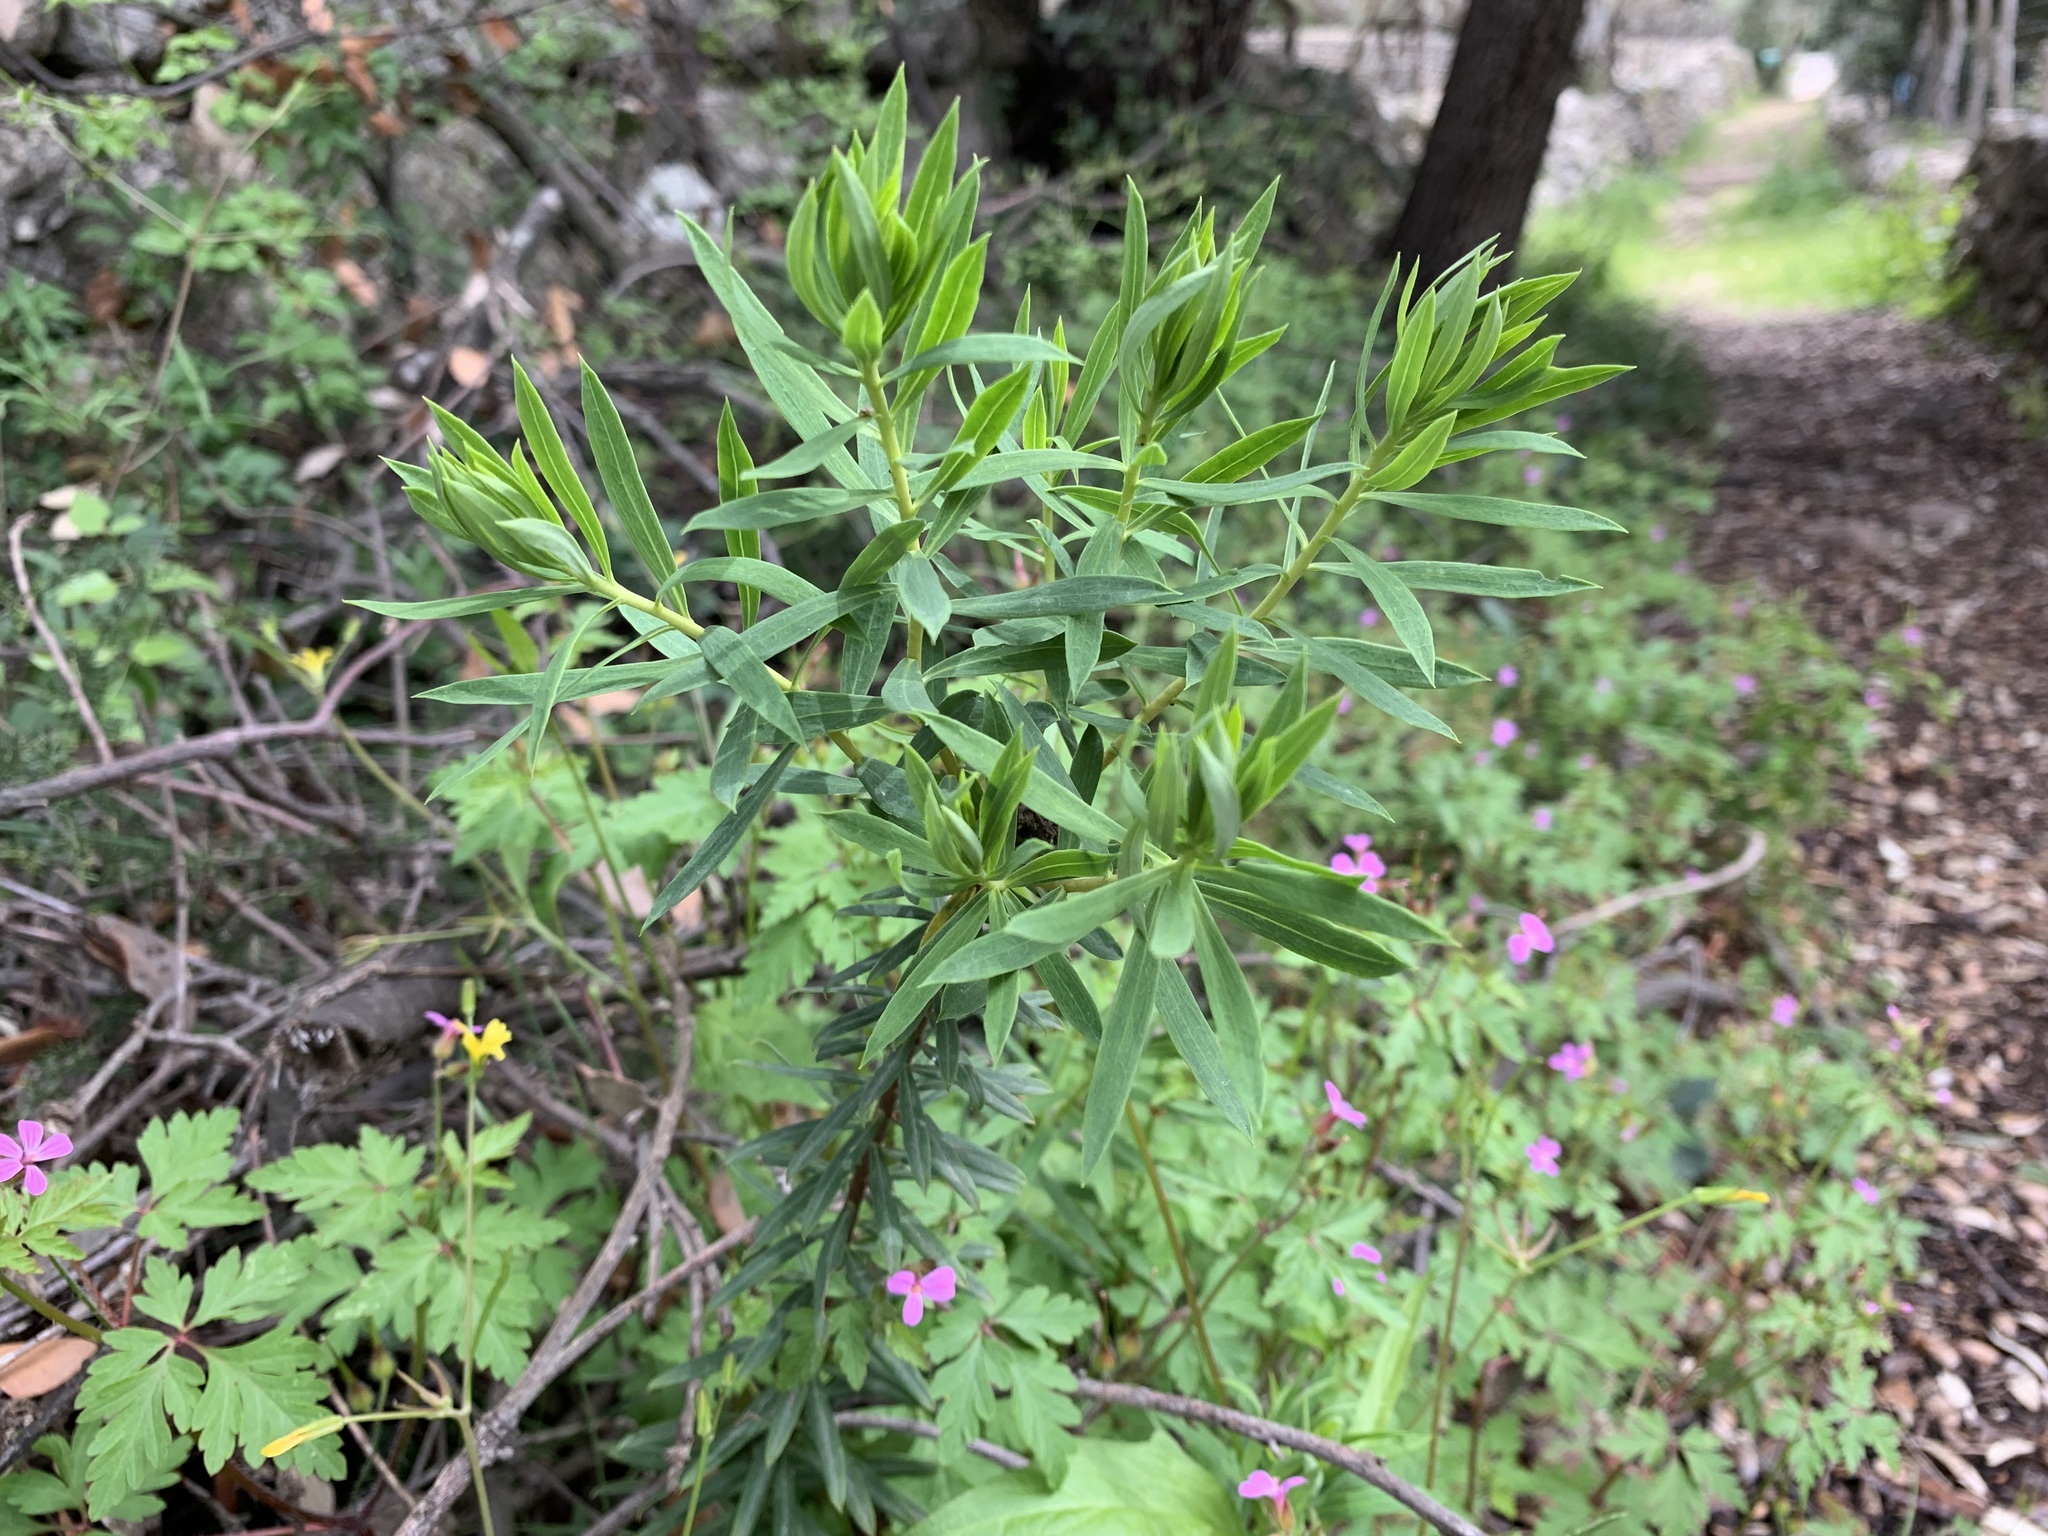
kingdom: Plantae
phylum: Tracheophyta
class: Magnoliopsida
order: Malvales
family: Thymelaeaceae
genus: Daphne
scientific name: Daphne gnidium
